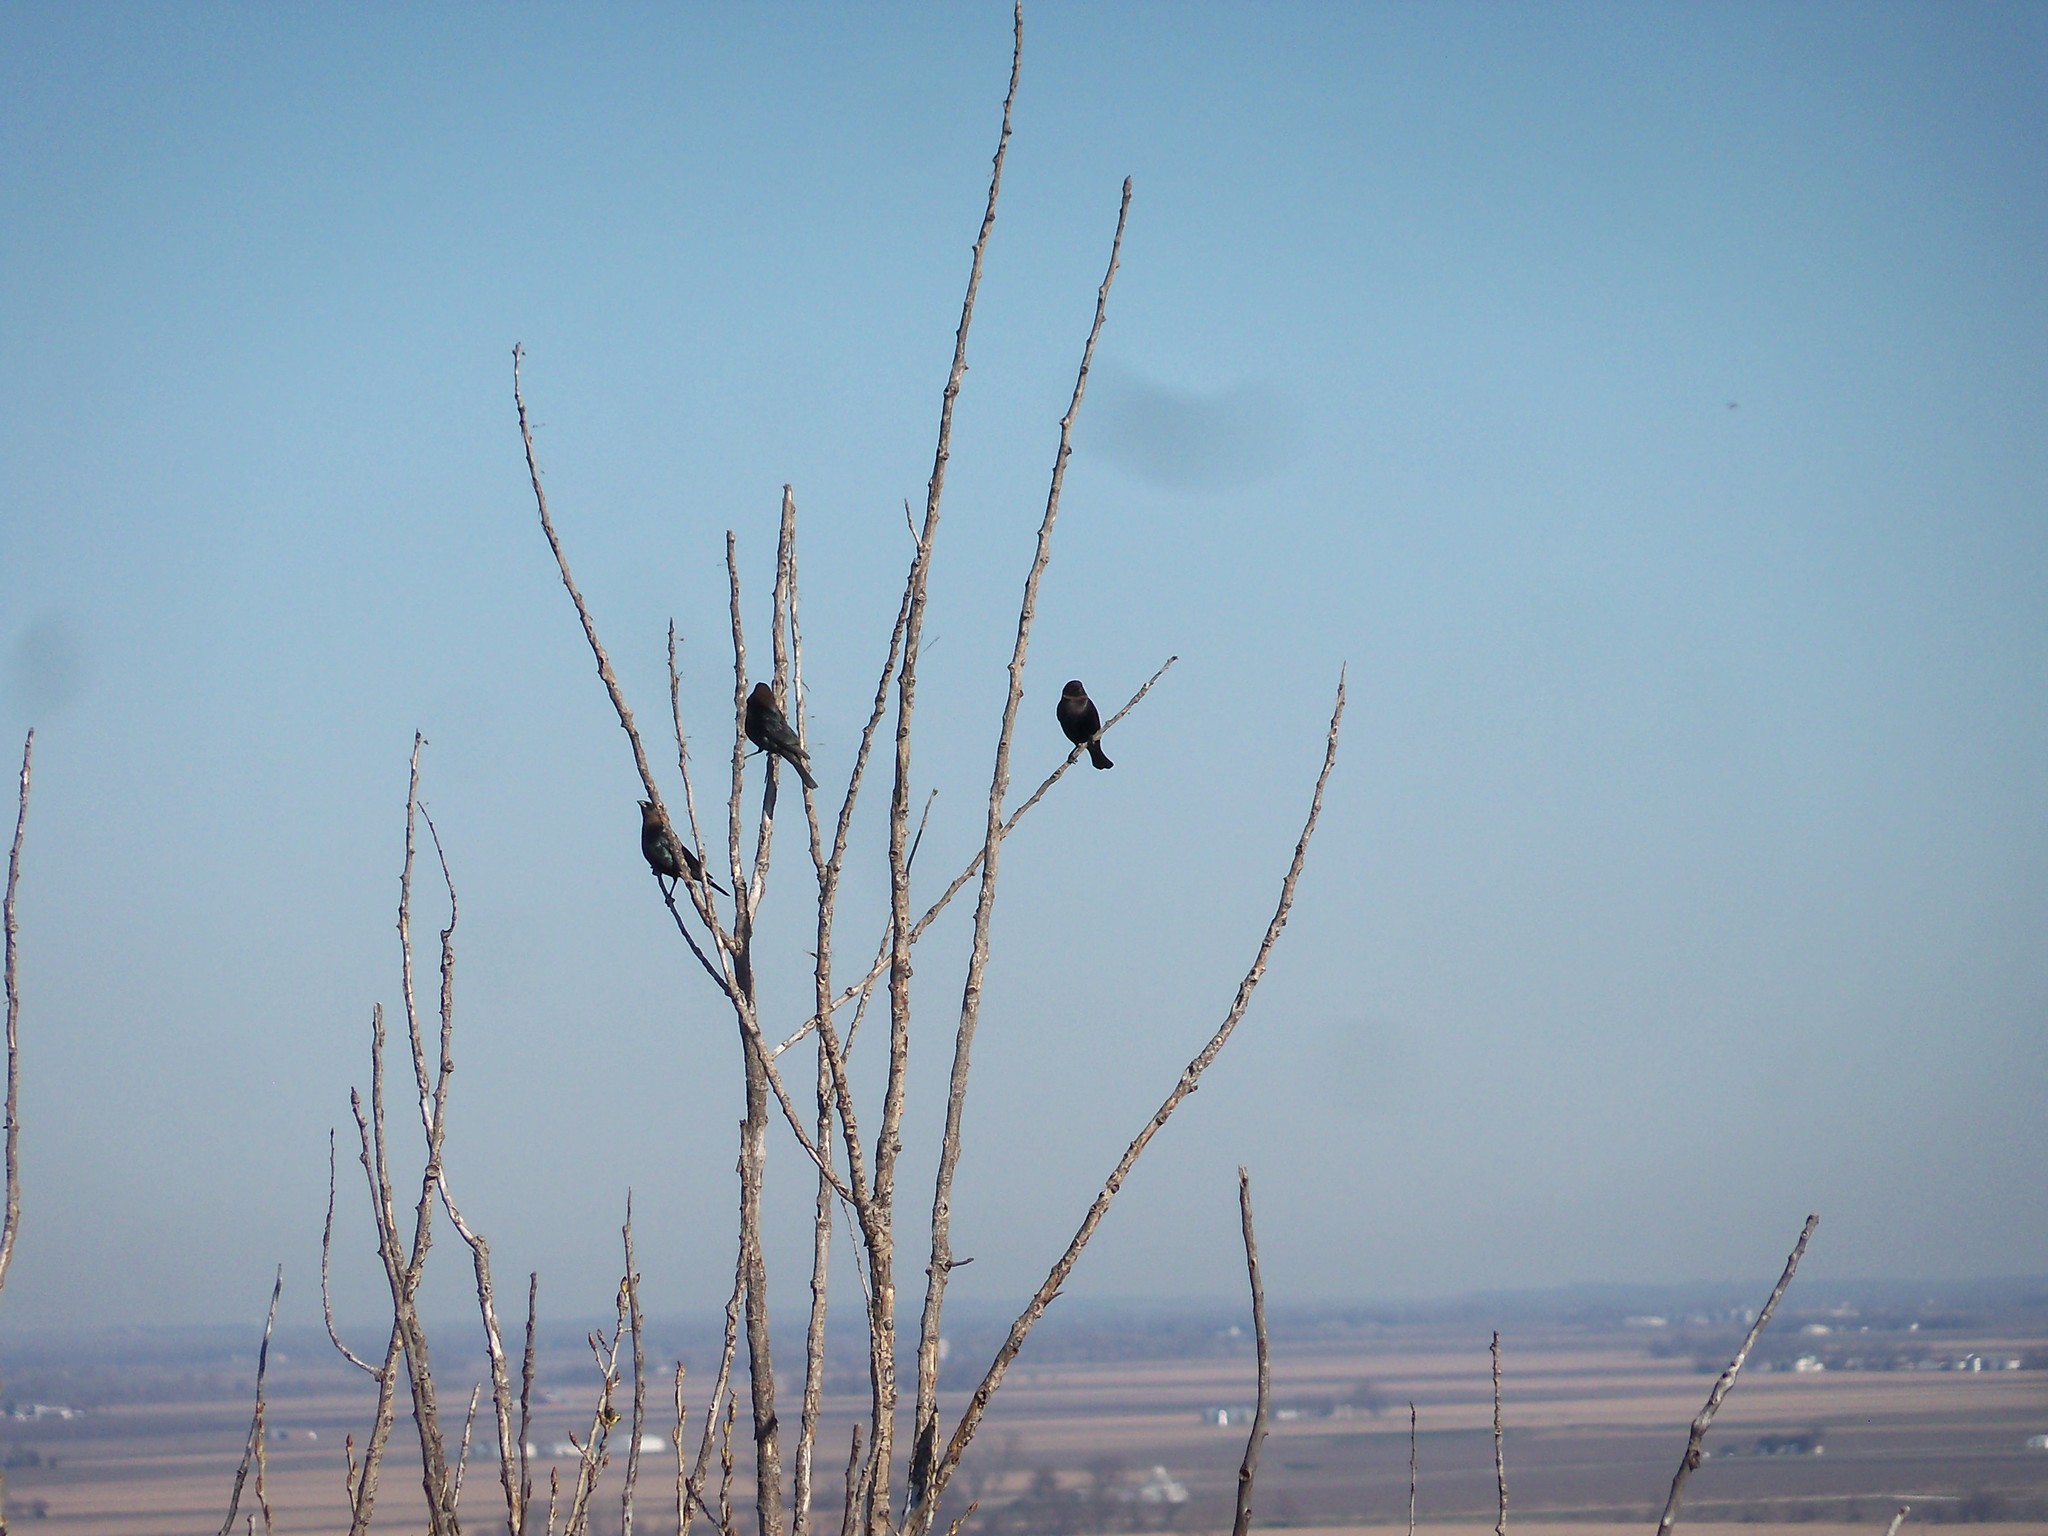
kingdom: Animalia
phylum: Chordata
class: Aves
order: Passeriformes
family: Icteridae
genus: Molothrus
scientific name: Molothrus ater
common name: Brown-headed cowbird
